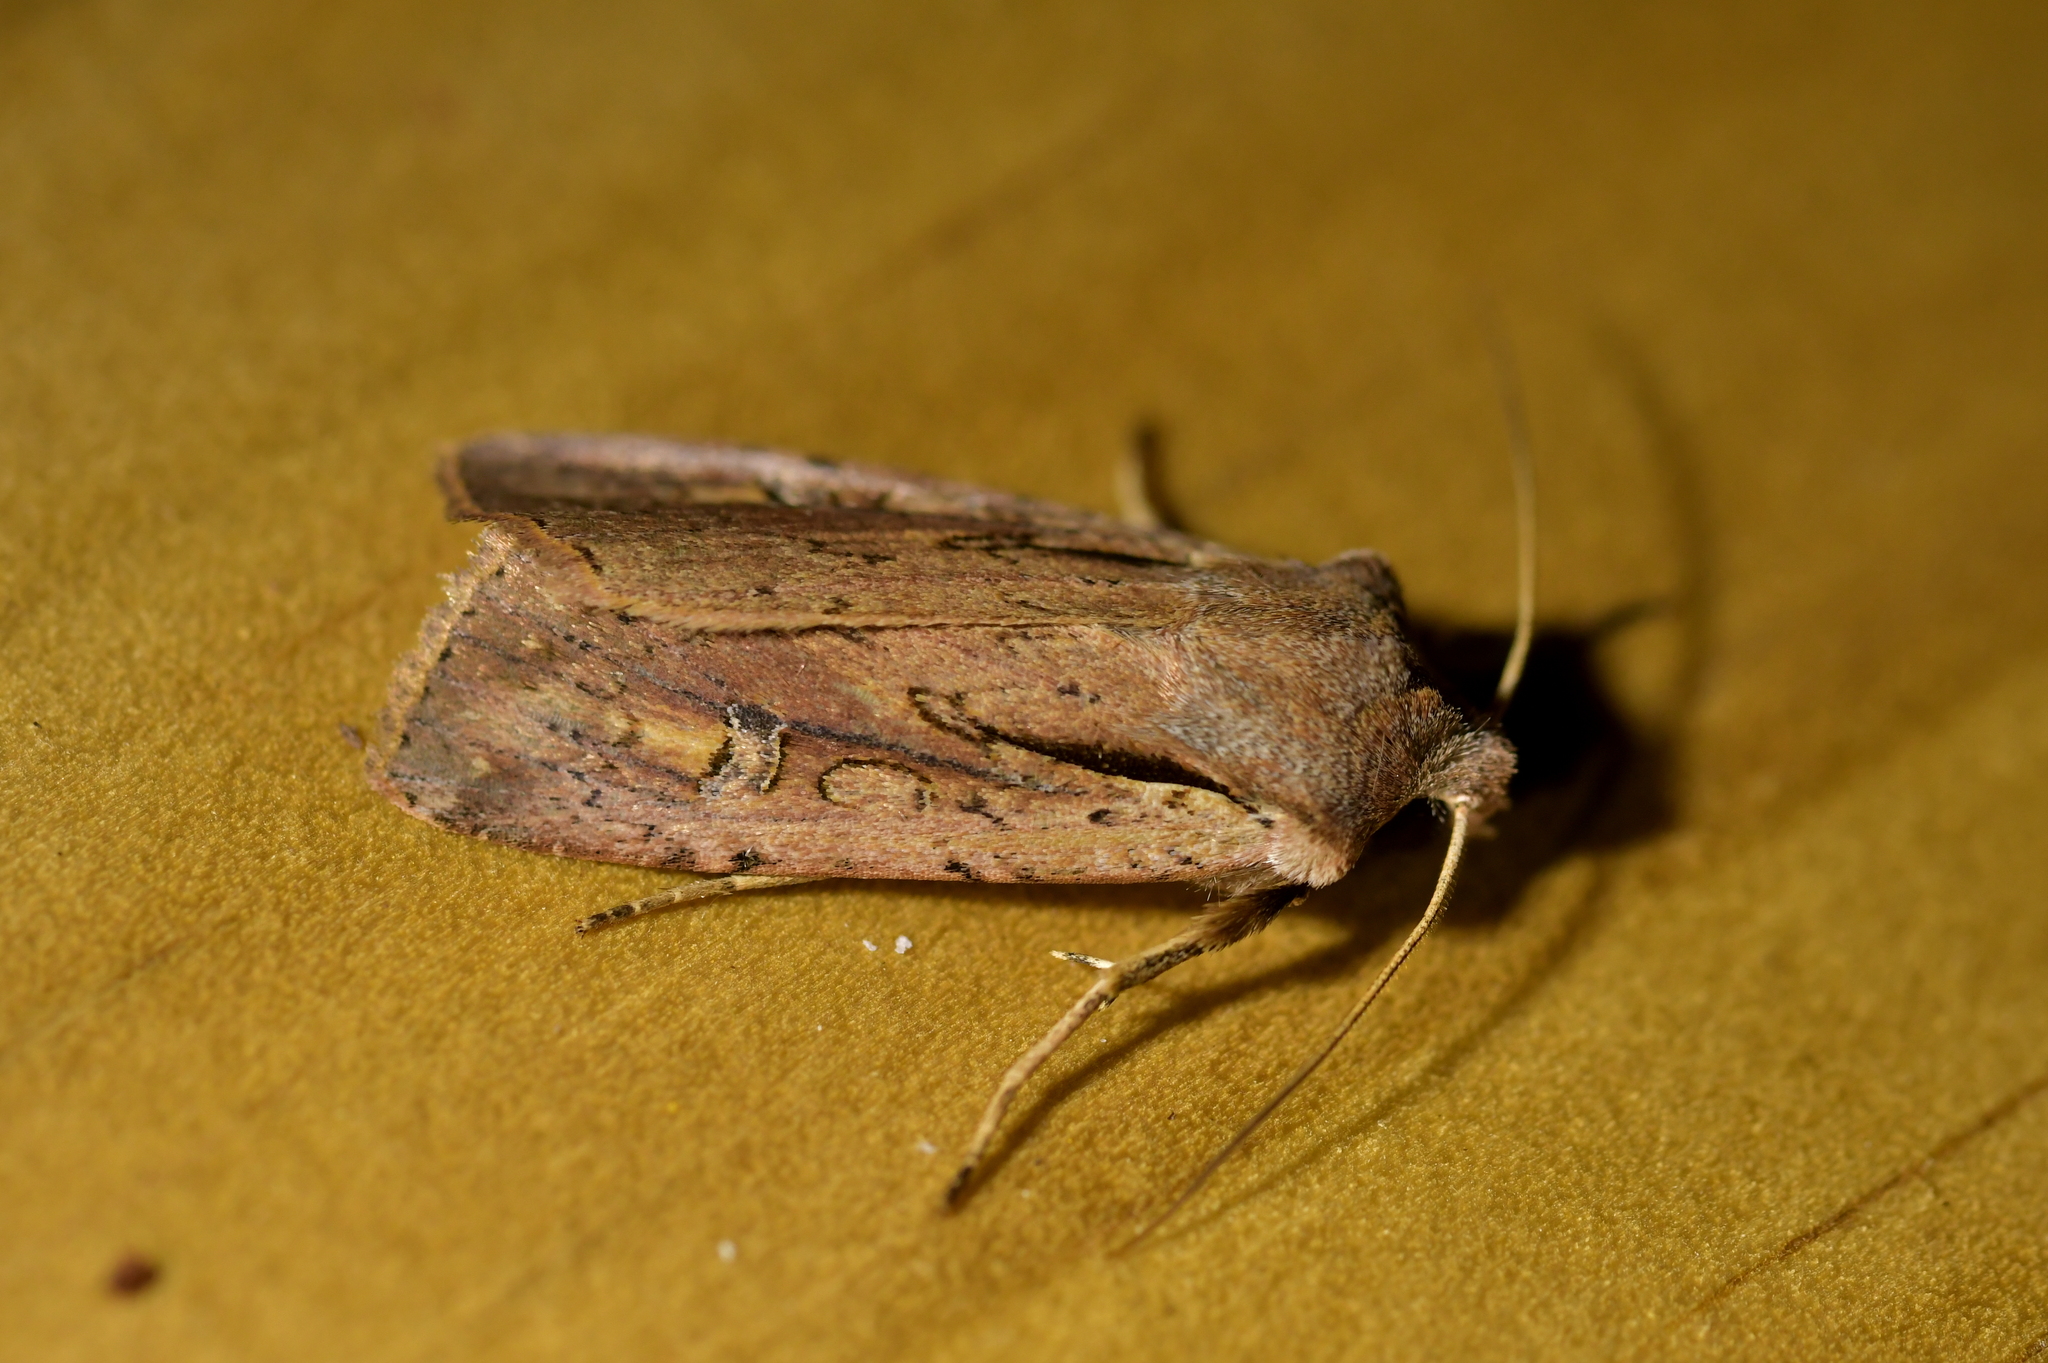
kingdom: Animalia
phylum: Arthropoda
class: Insecta
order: Lepidoptera
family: Noctuidae
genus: Ichneutica
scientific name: Ichneutica atristriga
